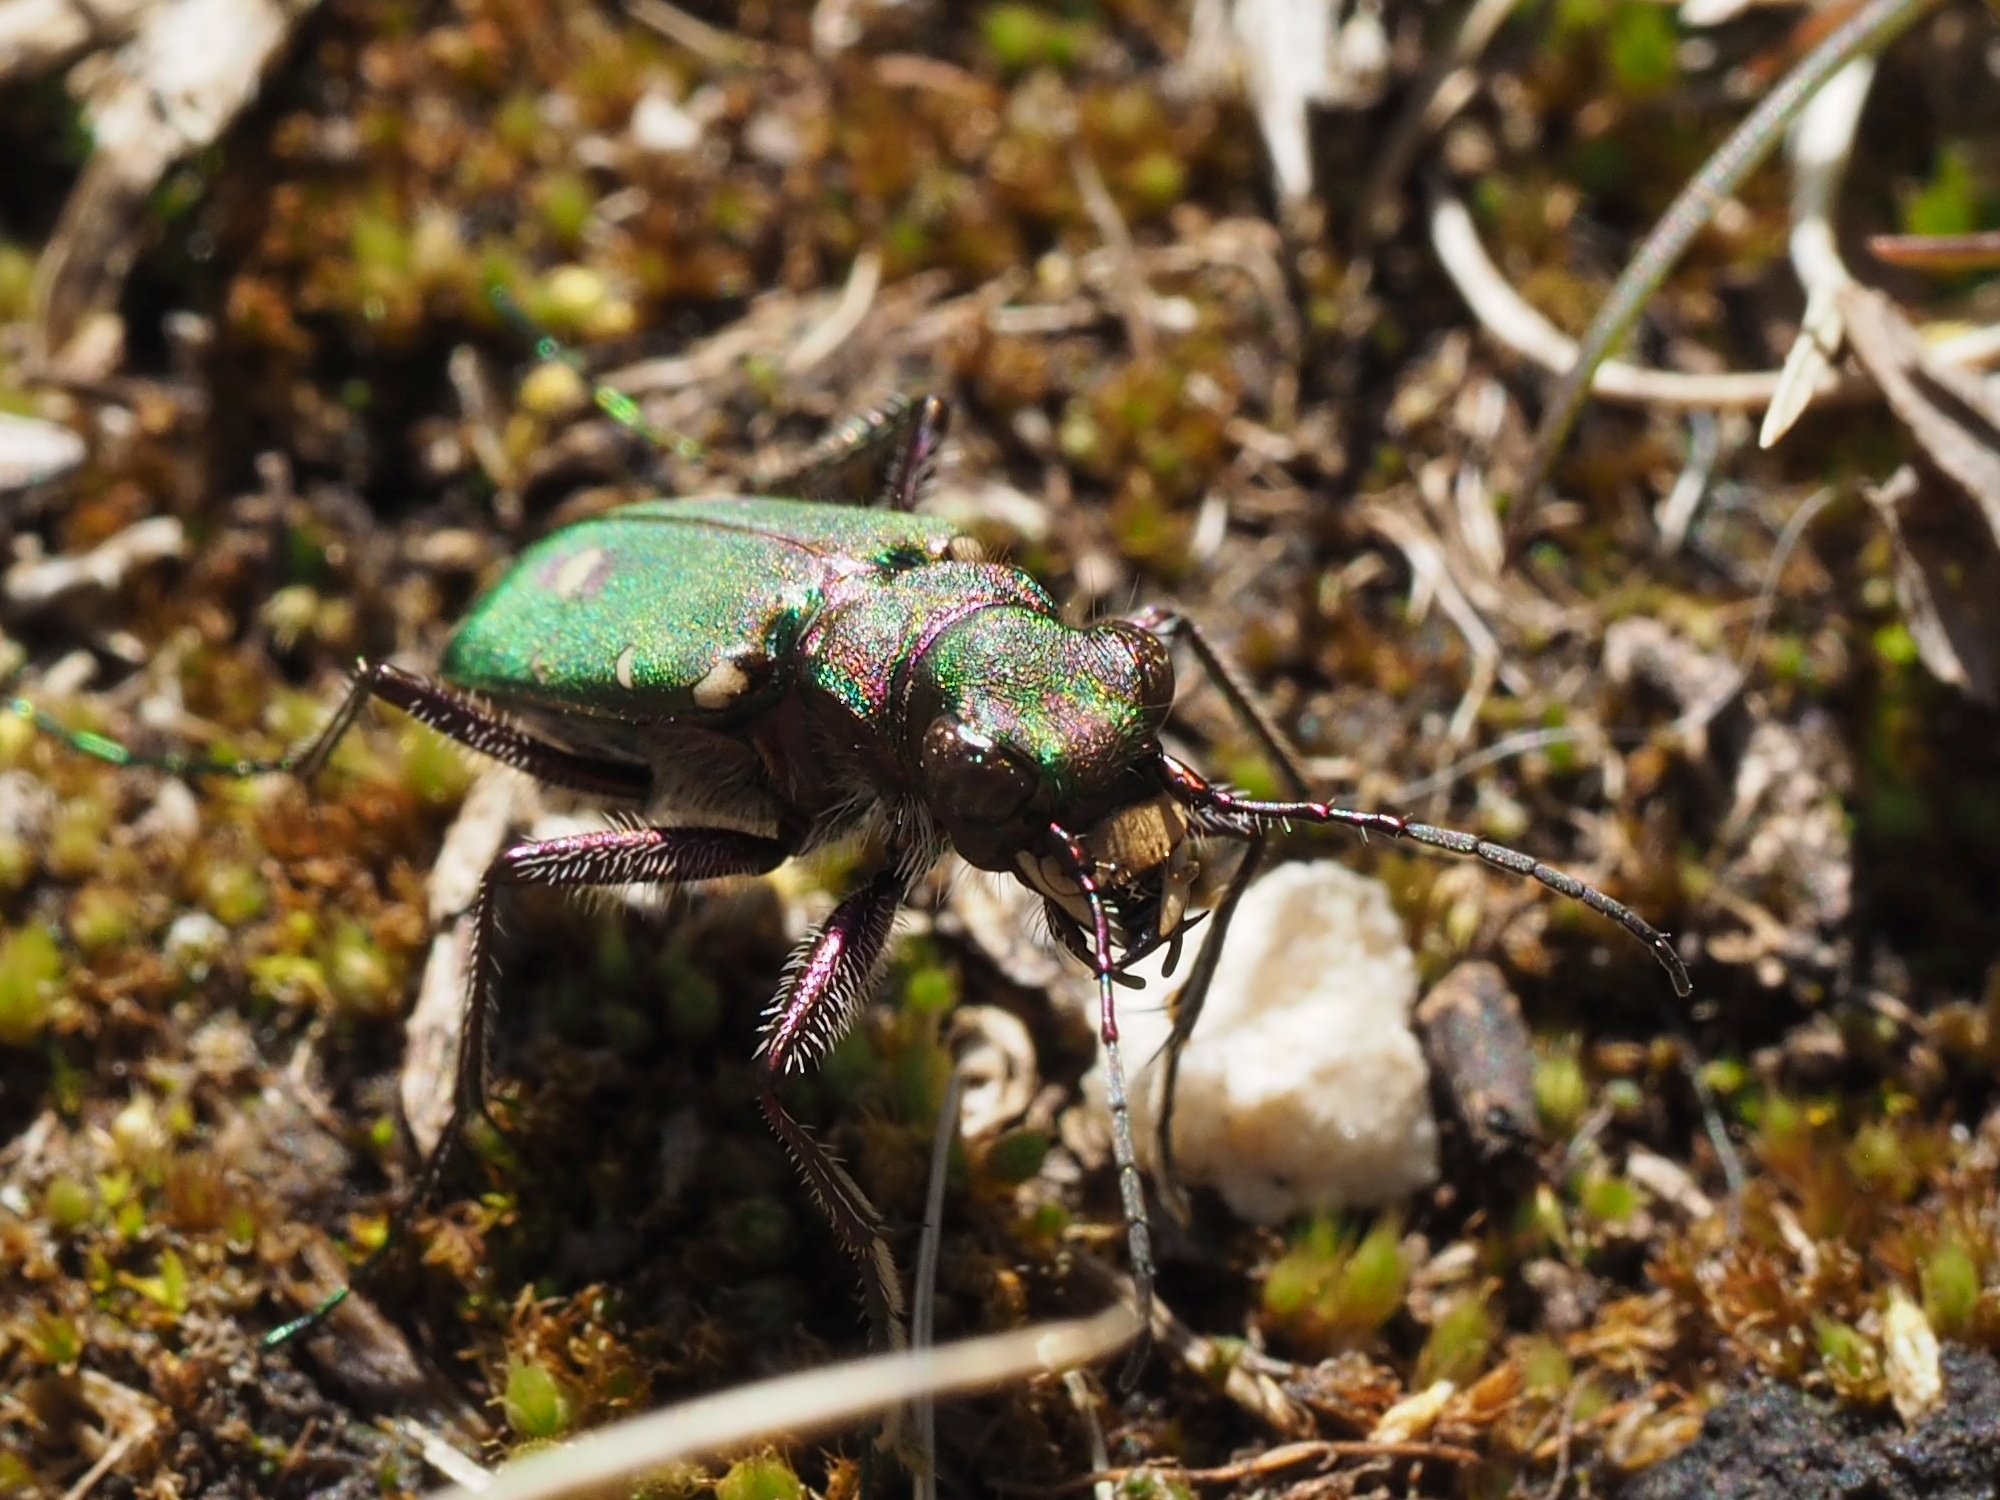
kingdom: Animalia
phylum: Arthropoda
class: Insecta
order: Coleoptera
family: Carabidae
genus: Cicindela
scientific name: Cicindela campestris
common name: Common tiger beetle
